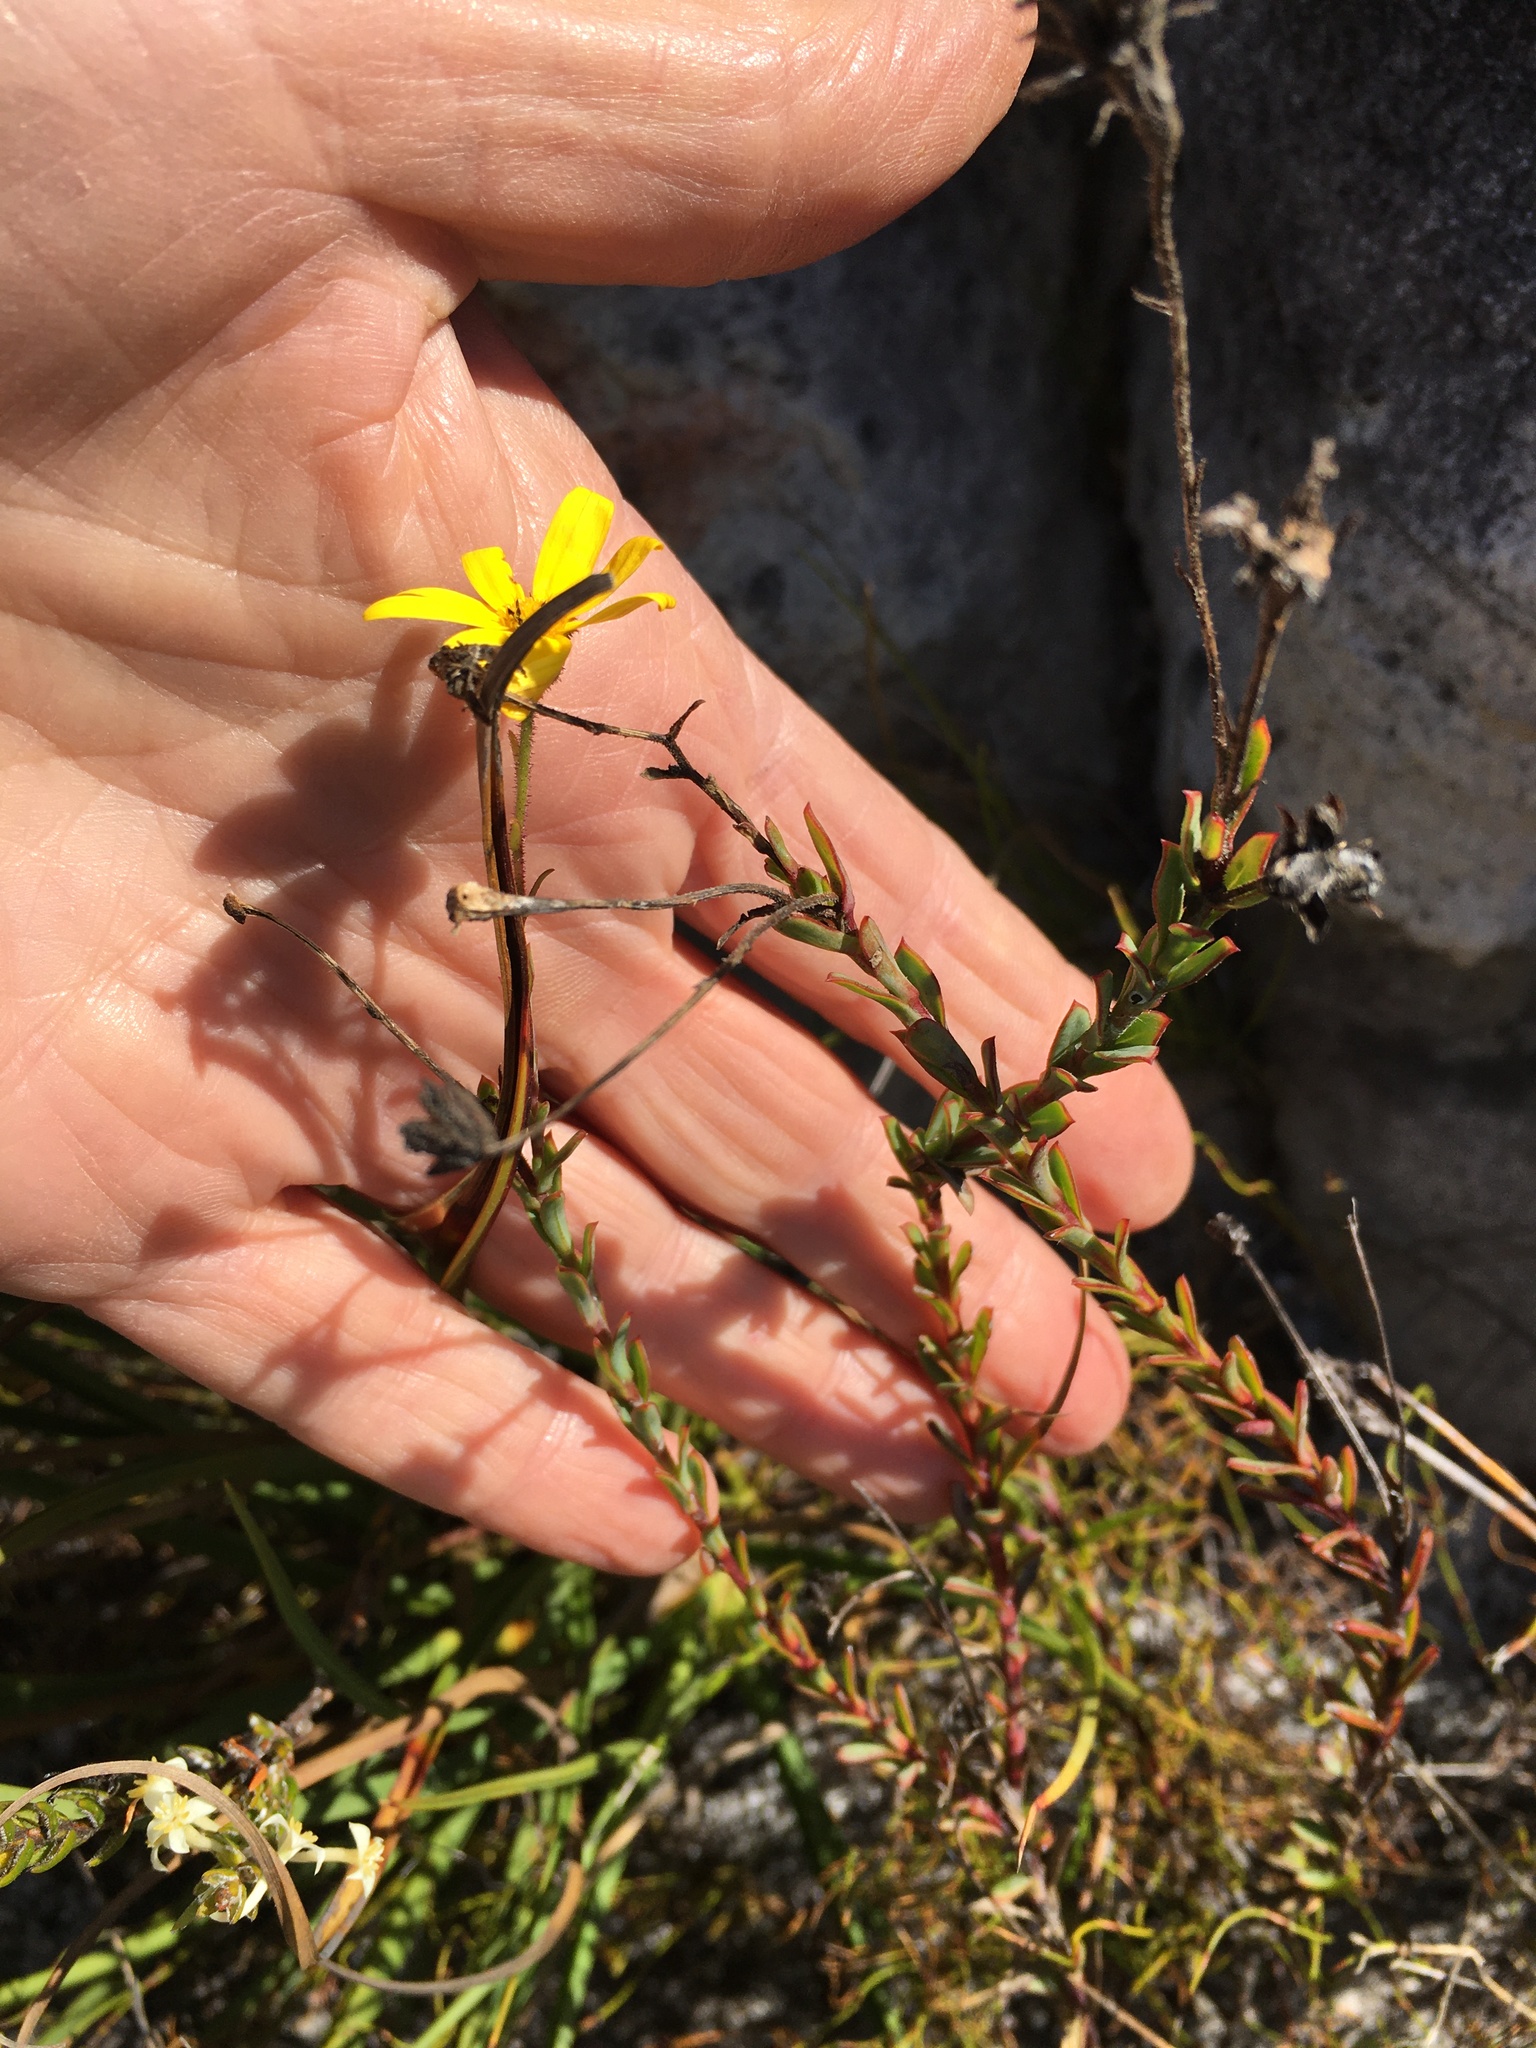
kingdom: Plantae
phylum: Tracheophyta
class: Magnoliopsida
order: Asterales
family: Asteraceae
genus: Osteospermum
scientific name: Osteospermum polygaloides
